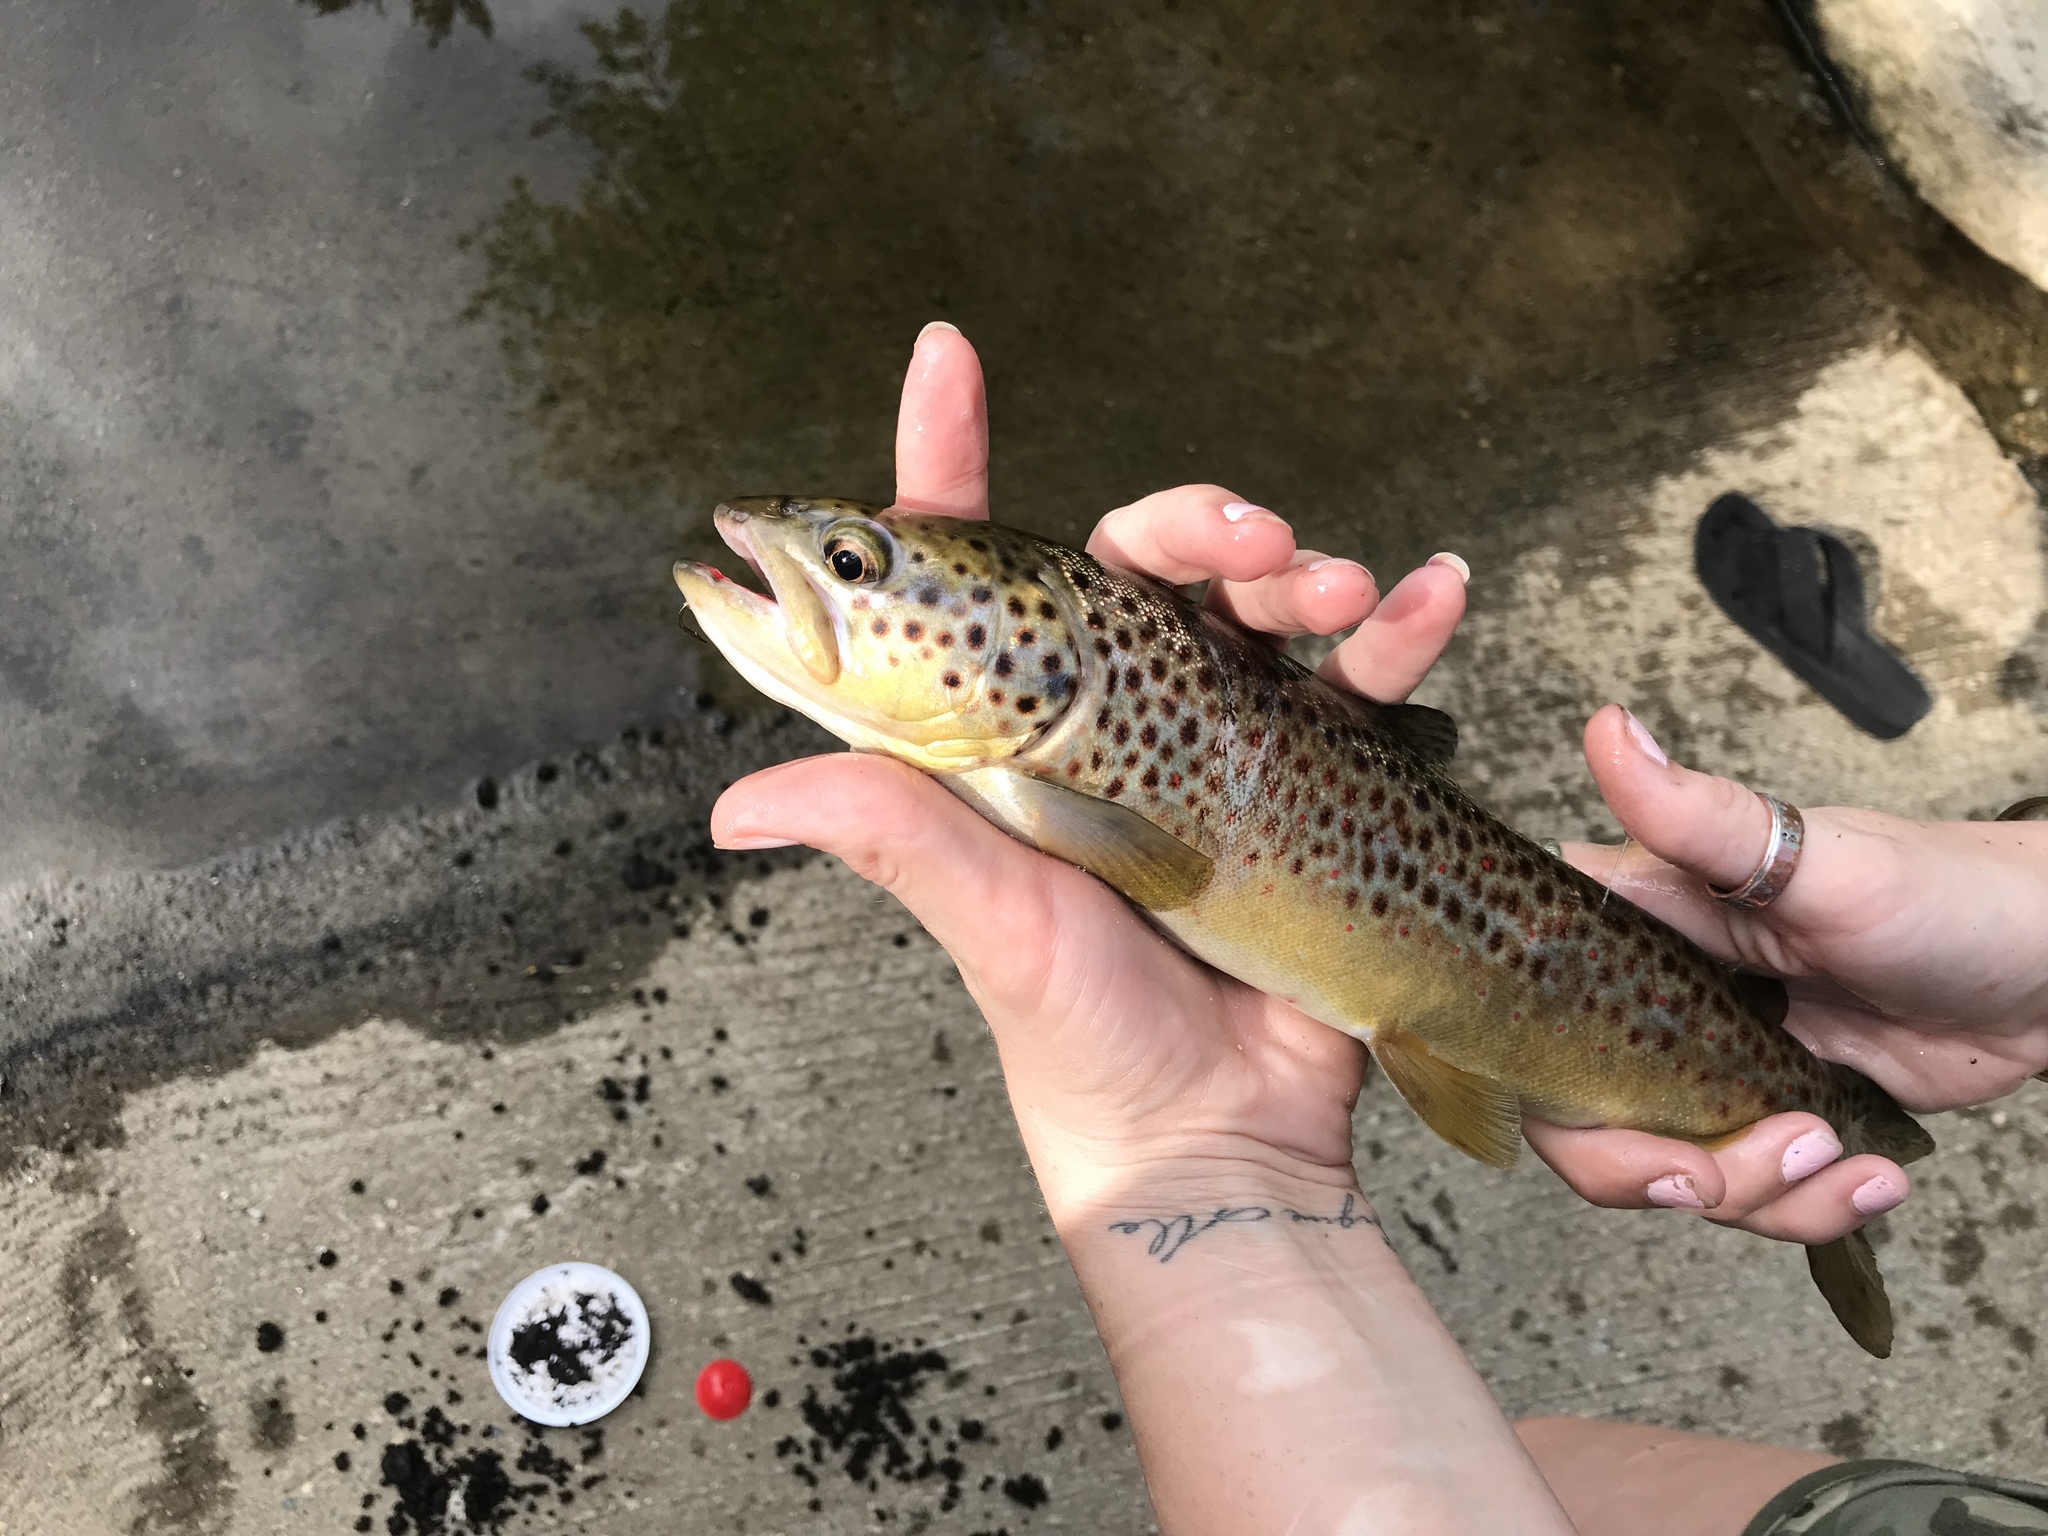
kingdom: Animalia
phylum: Chordata
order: Salmoniformes
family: Salmonidae
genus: Salmo
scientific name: Salmo trutta
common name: Brown trout
